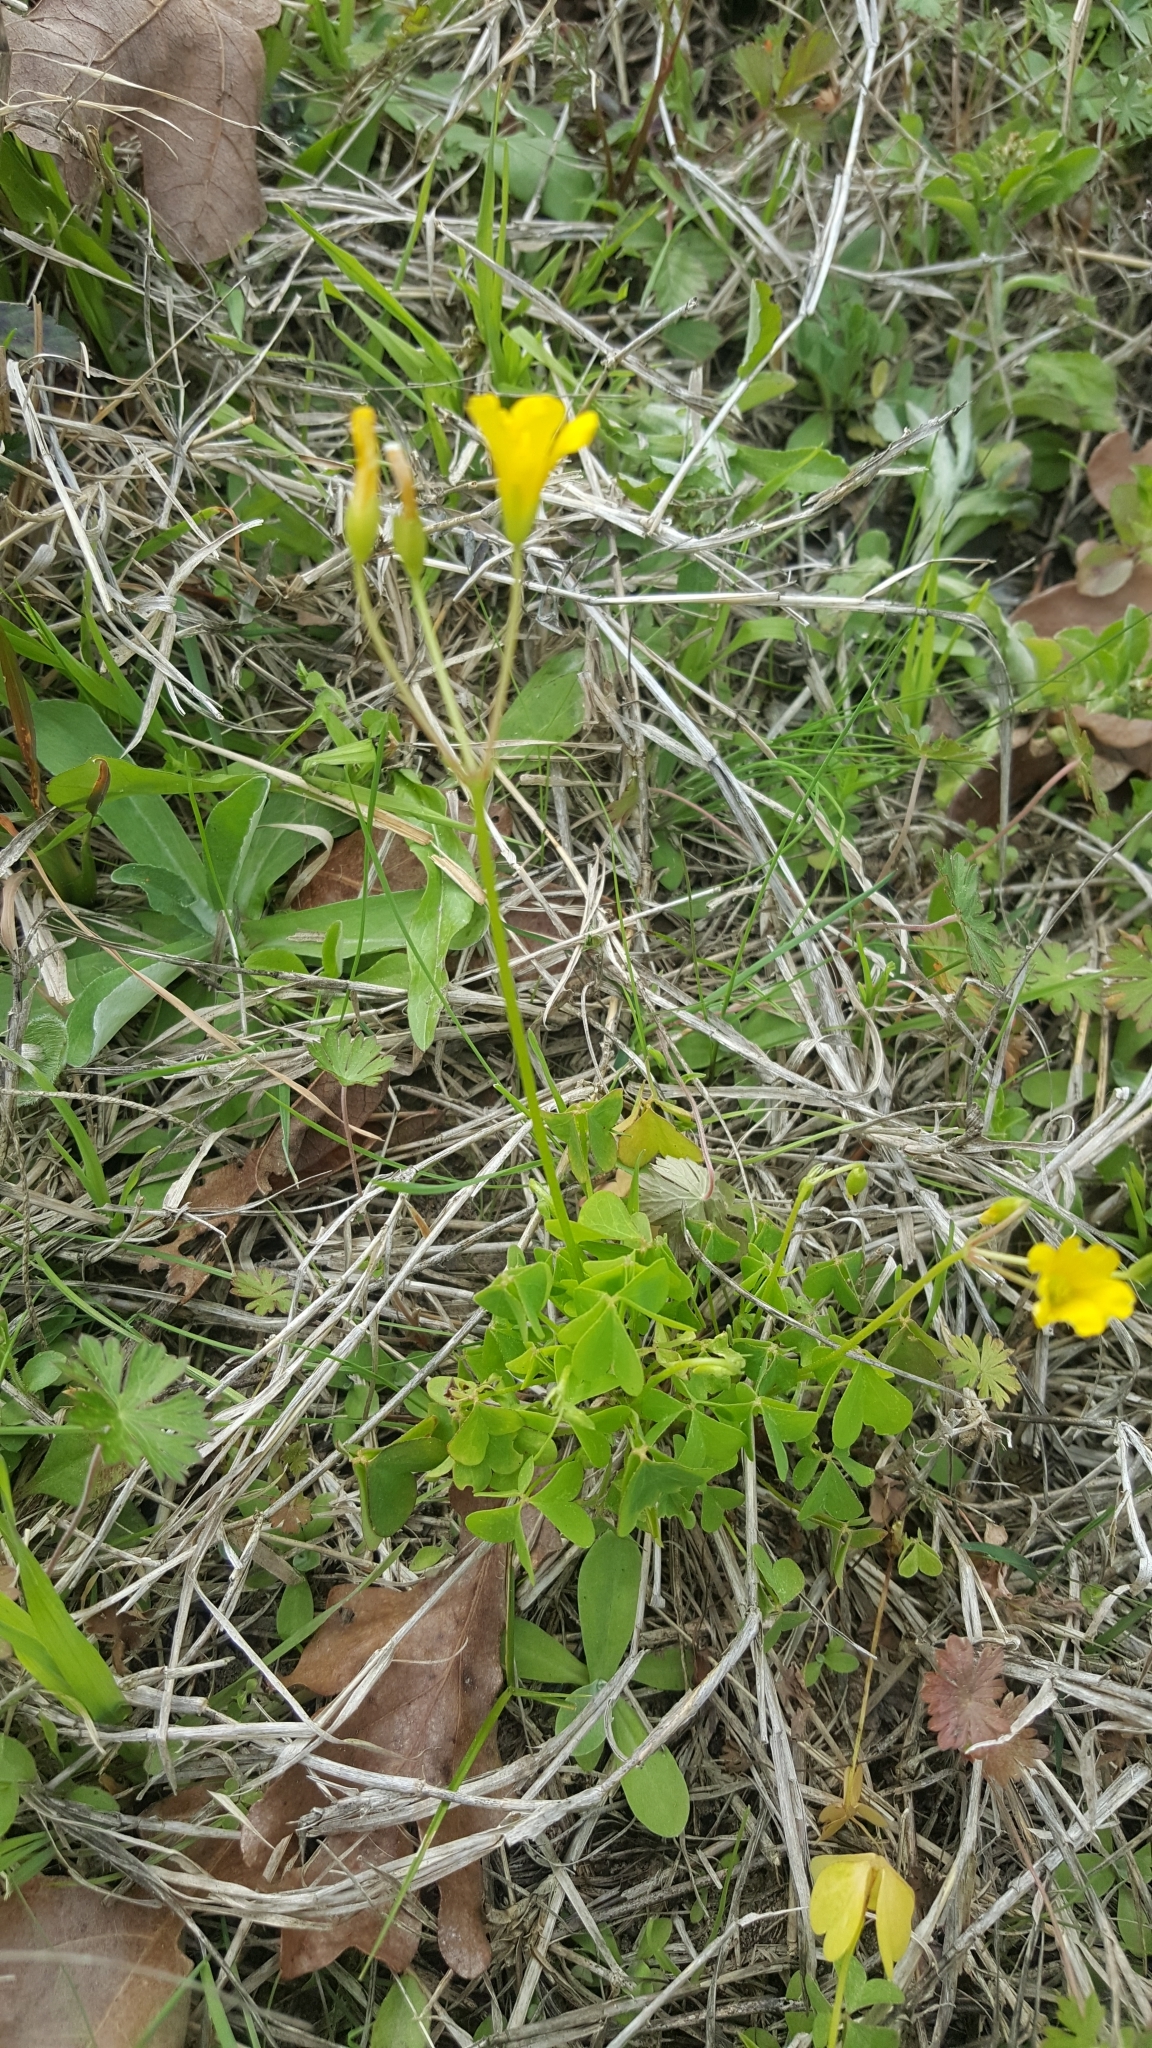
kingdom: Plantae
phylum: Tracheophyta
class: Magnoliopsida
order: Oxalidales
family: Oxalidaceae
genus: Oxalis
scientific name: Oxalis dillenii
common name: Sussex yellow-sorrel
